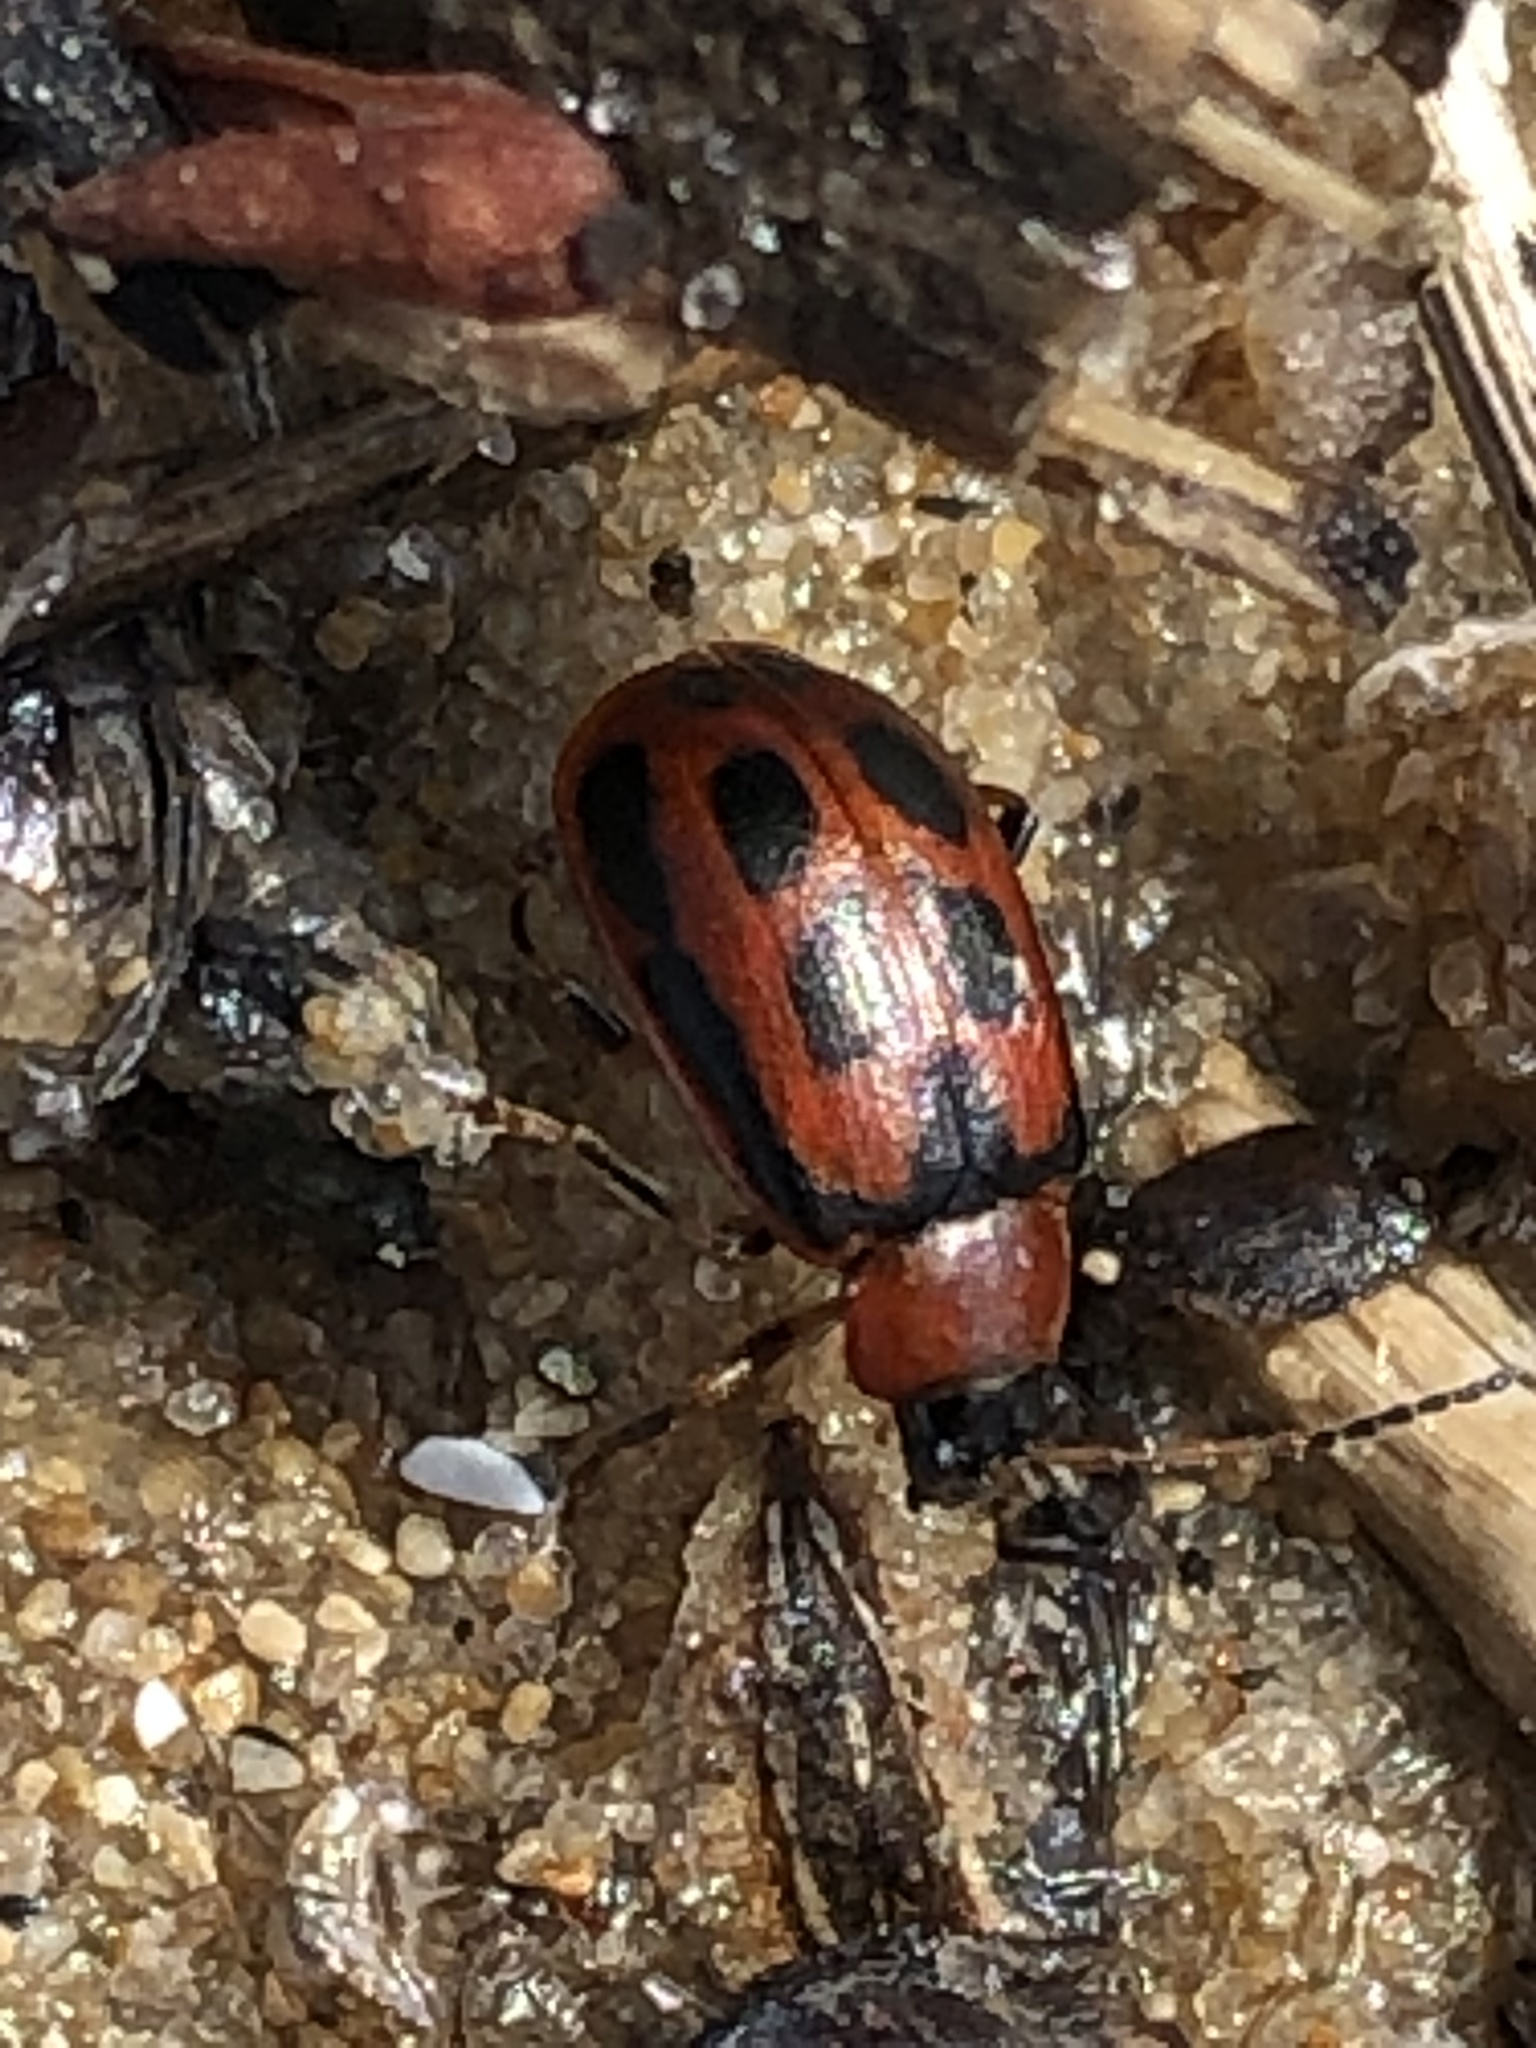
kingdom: Animalia
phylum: Arthropoda
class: Insecta
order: Coleoptera
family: Chrysomelidae
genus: Cerotoma
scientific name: Cerotoma trifurcata
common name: Bean leaf beetle
